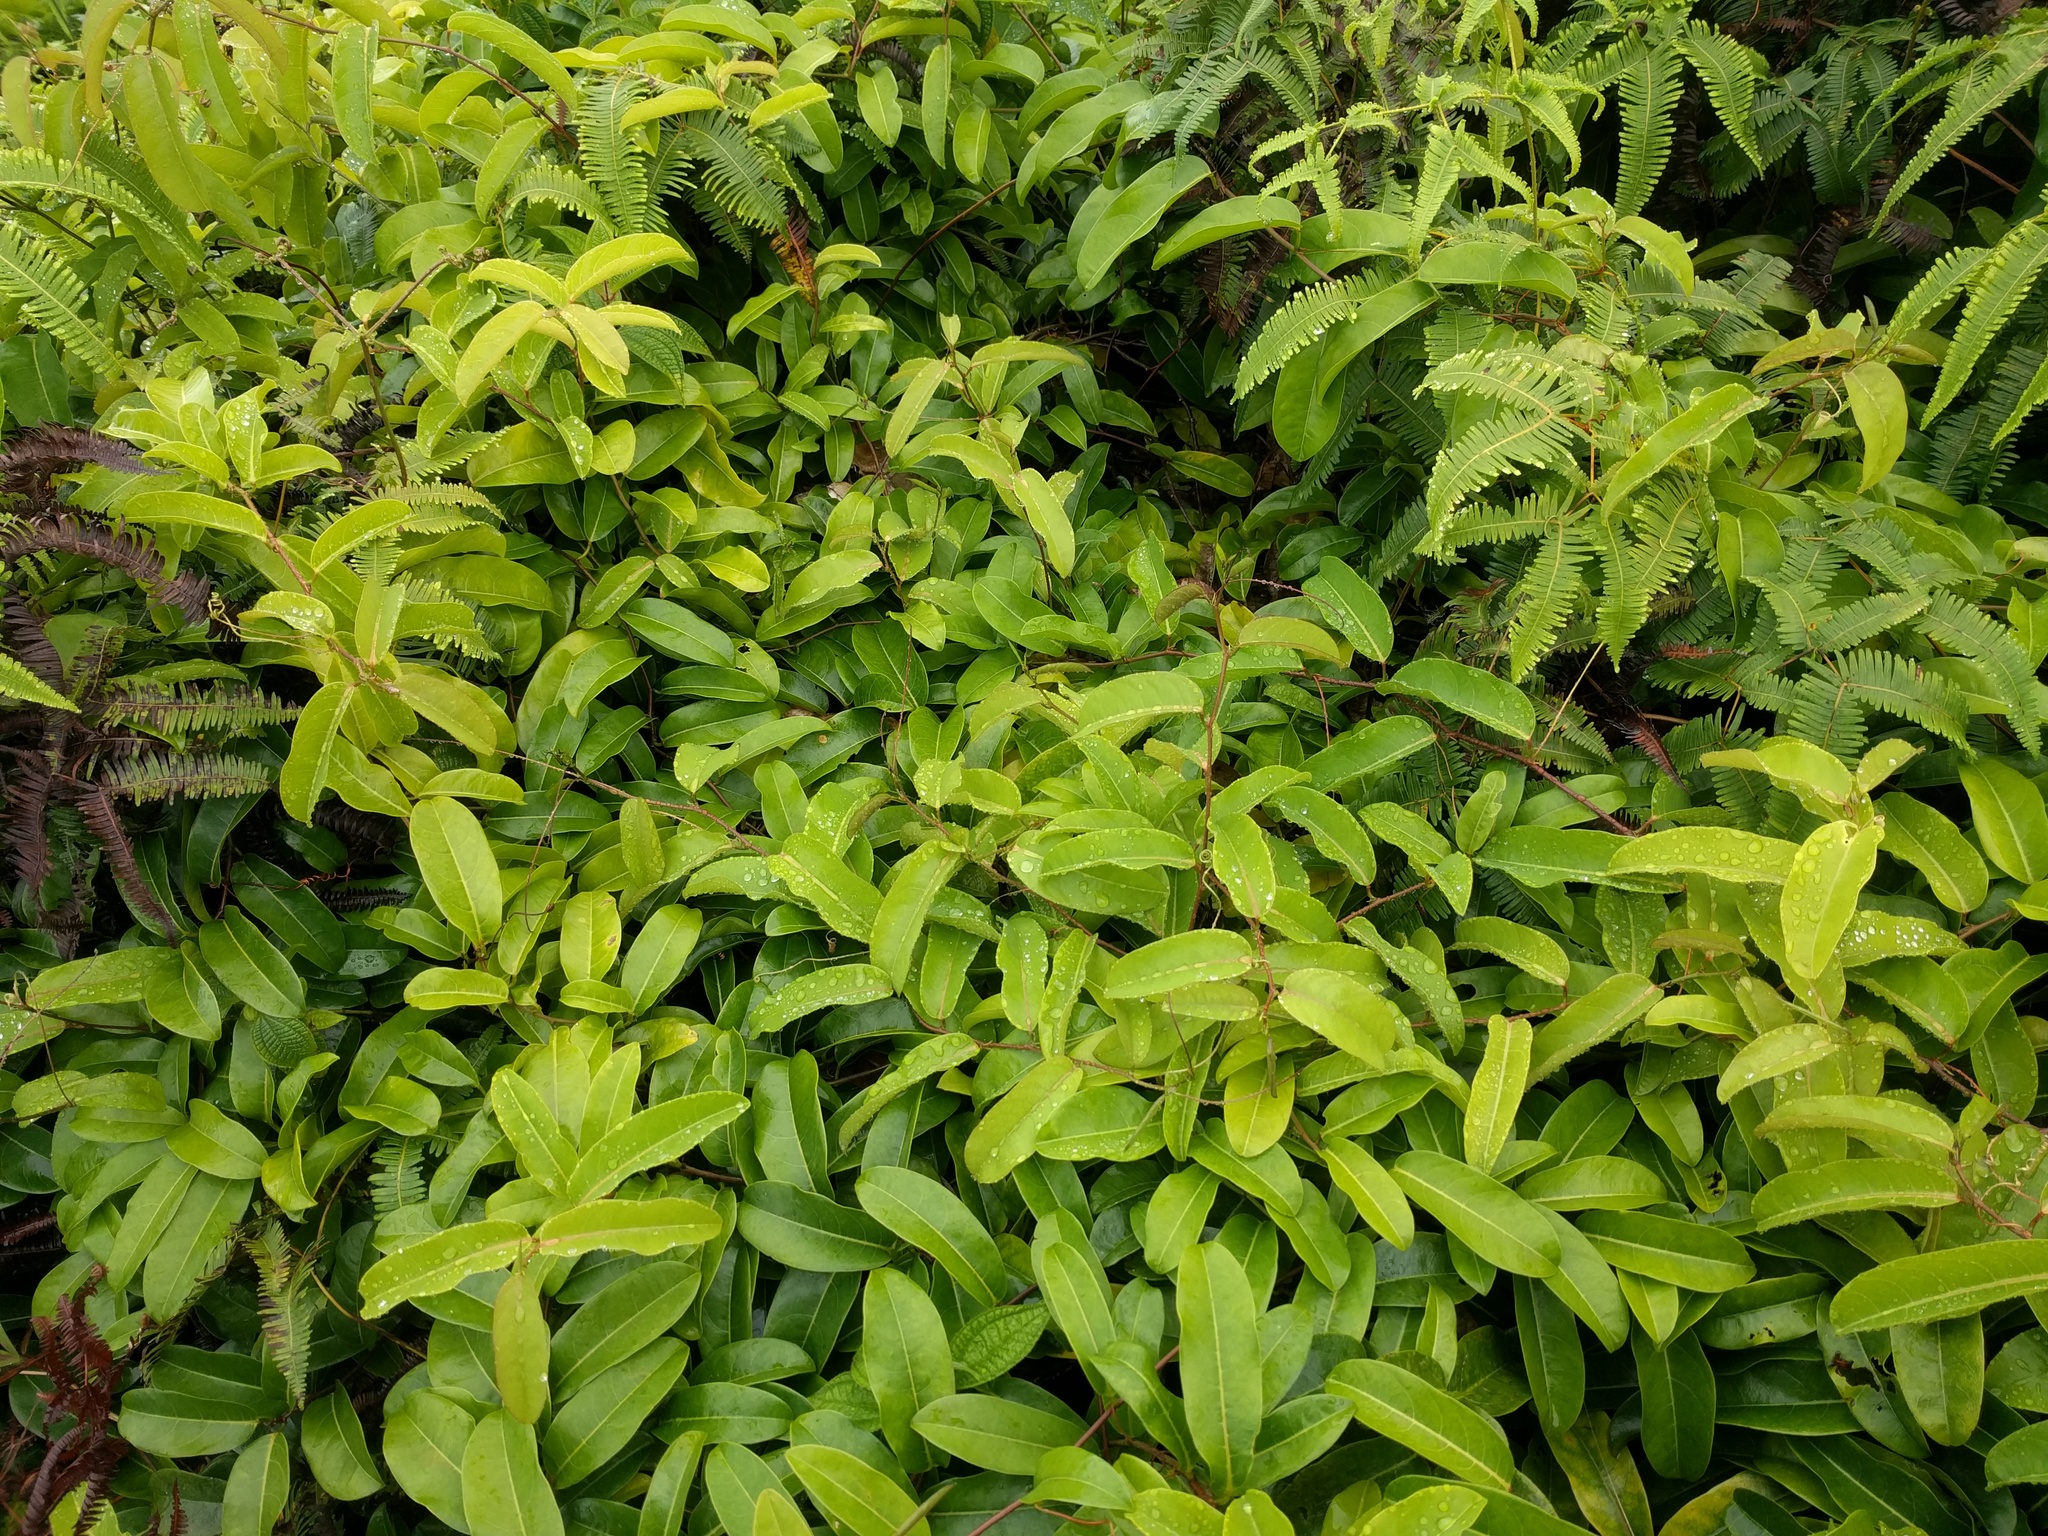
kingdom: Plantae
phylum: Tracheophyta
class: Magnoliopsida
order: Malpighiales
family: Passifloraceae
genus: Passiflora
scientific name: Passiflora laurifolia
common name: Bell apple
